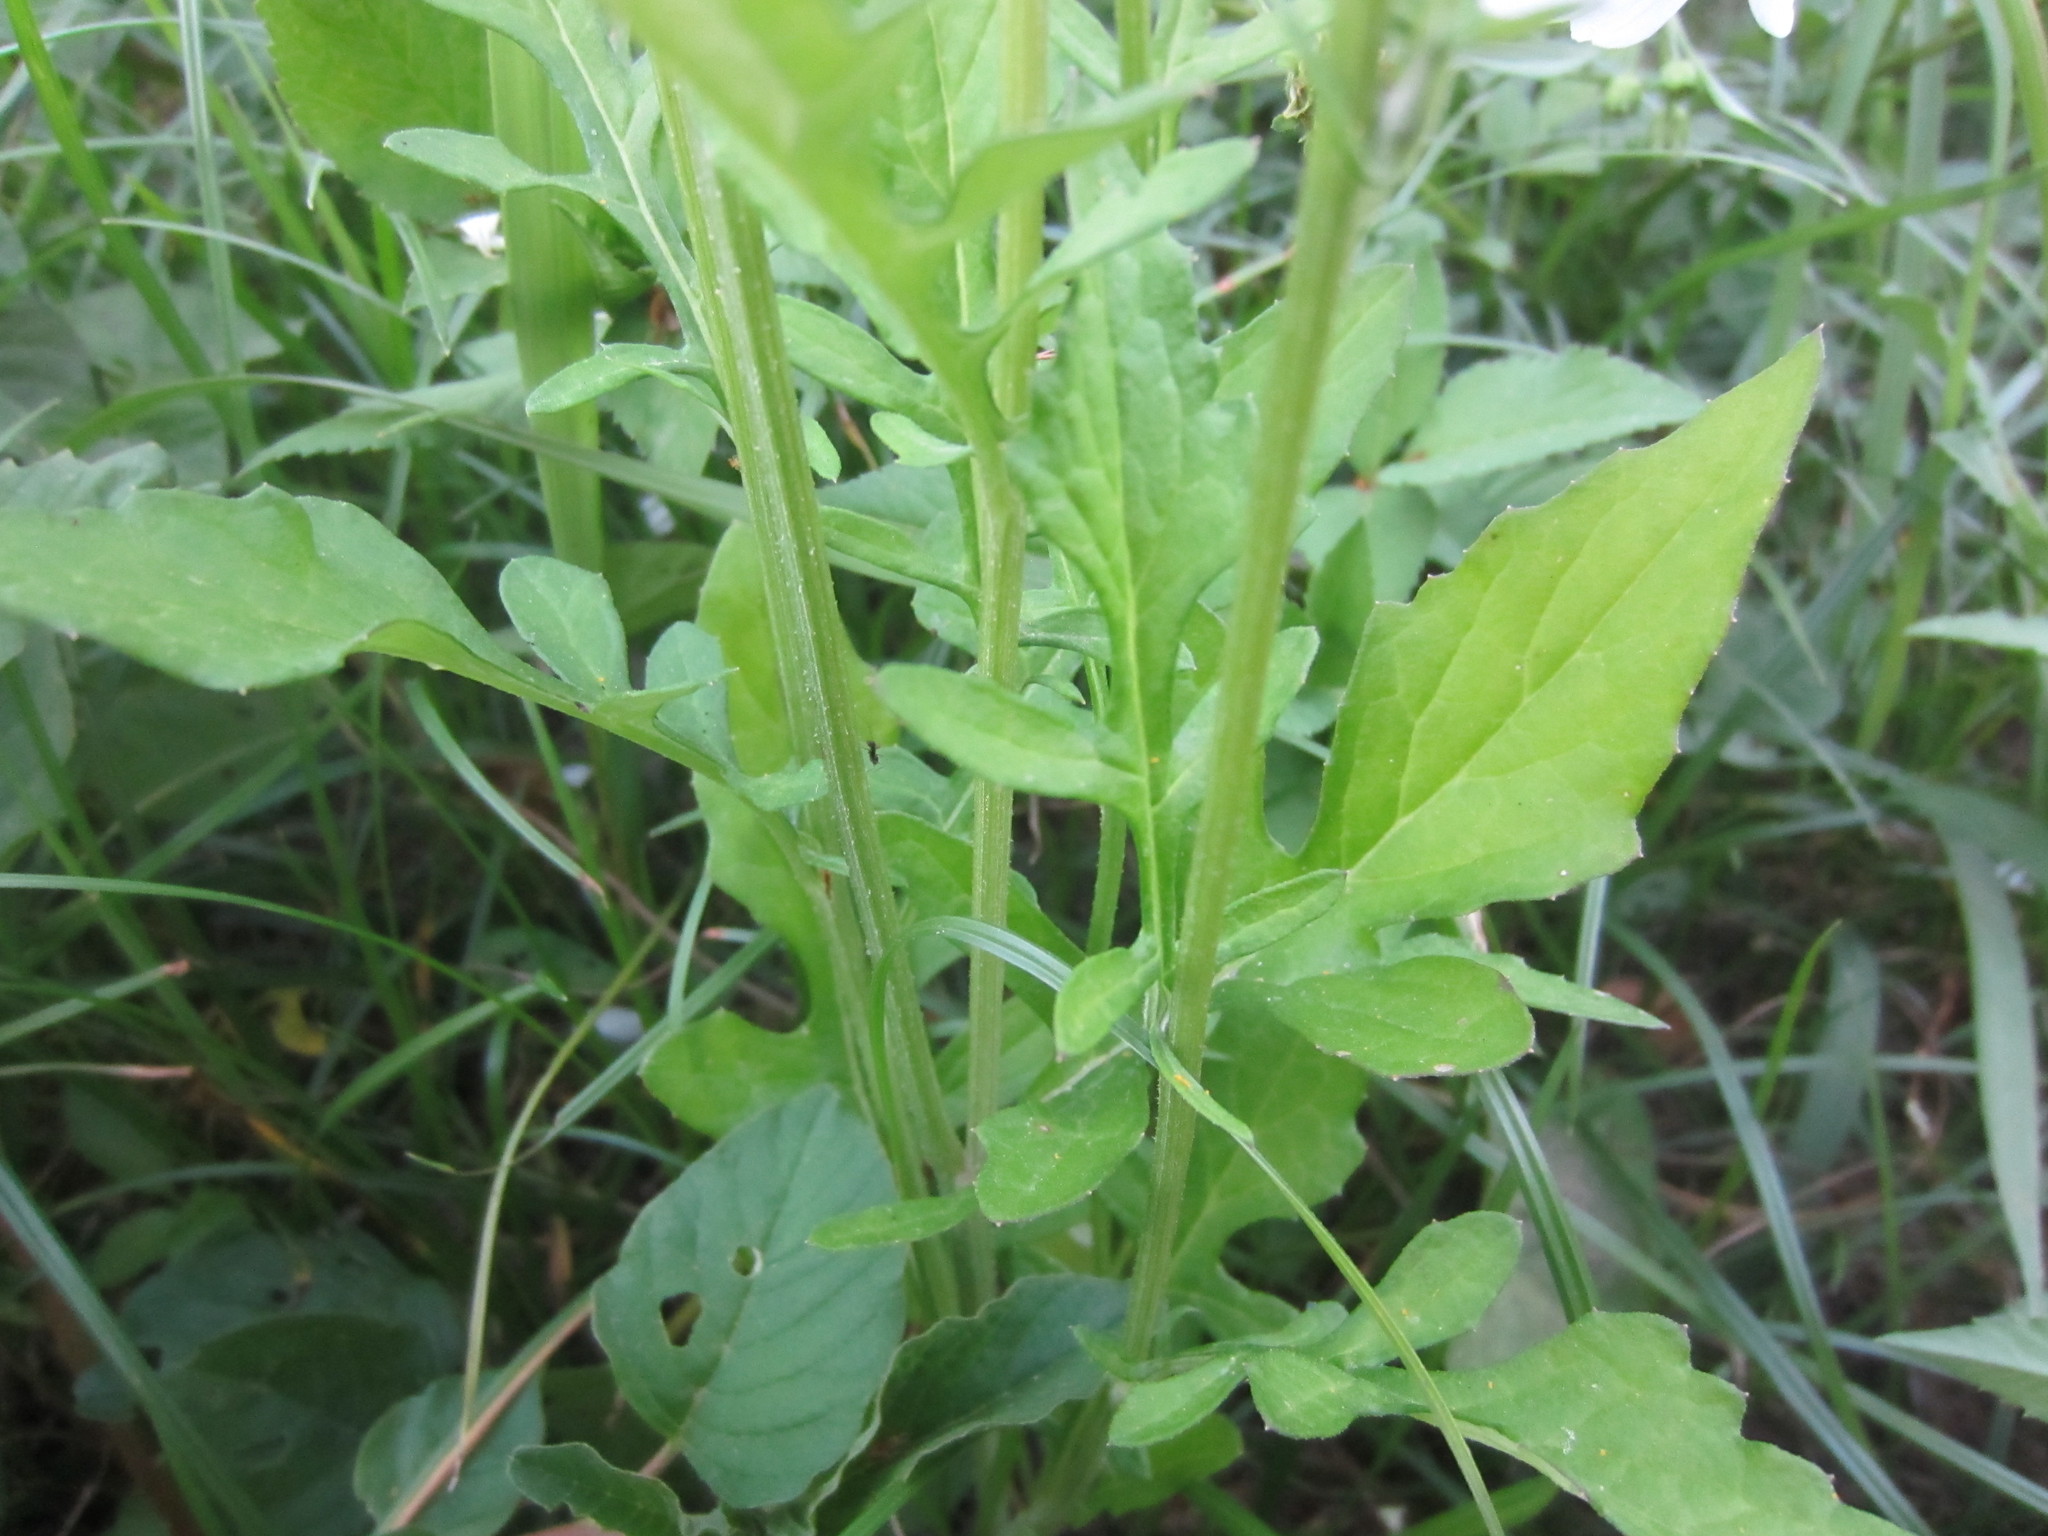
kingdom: Plantae
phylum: Tracheophyta
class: Magnoliopsida
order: Asterales
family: Asteraceae
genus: Saussurea
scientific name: Saussurea lyrata
